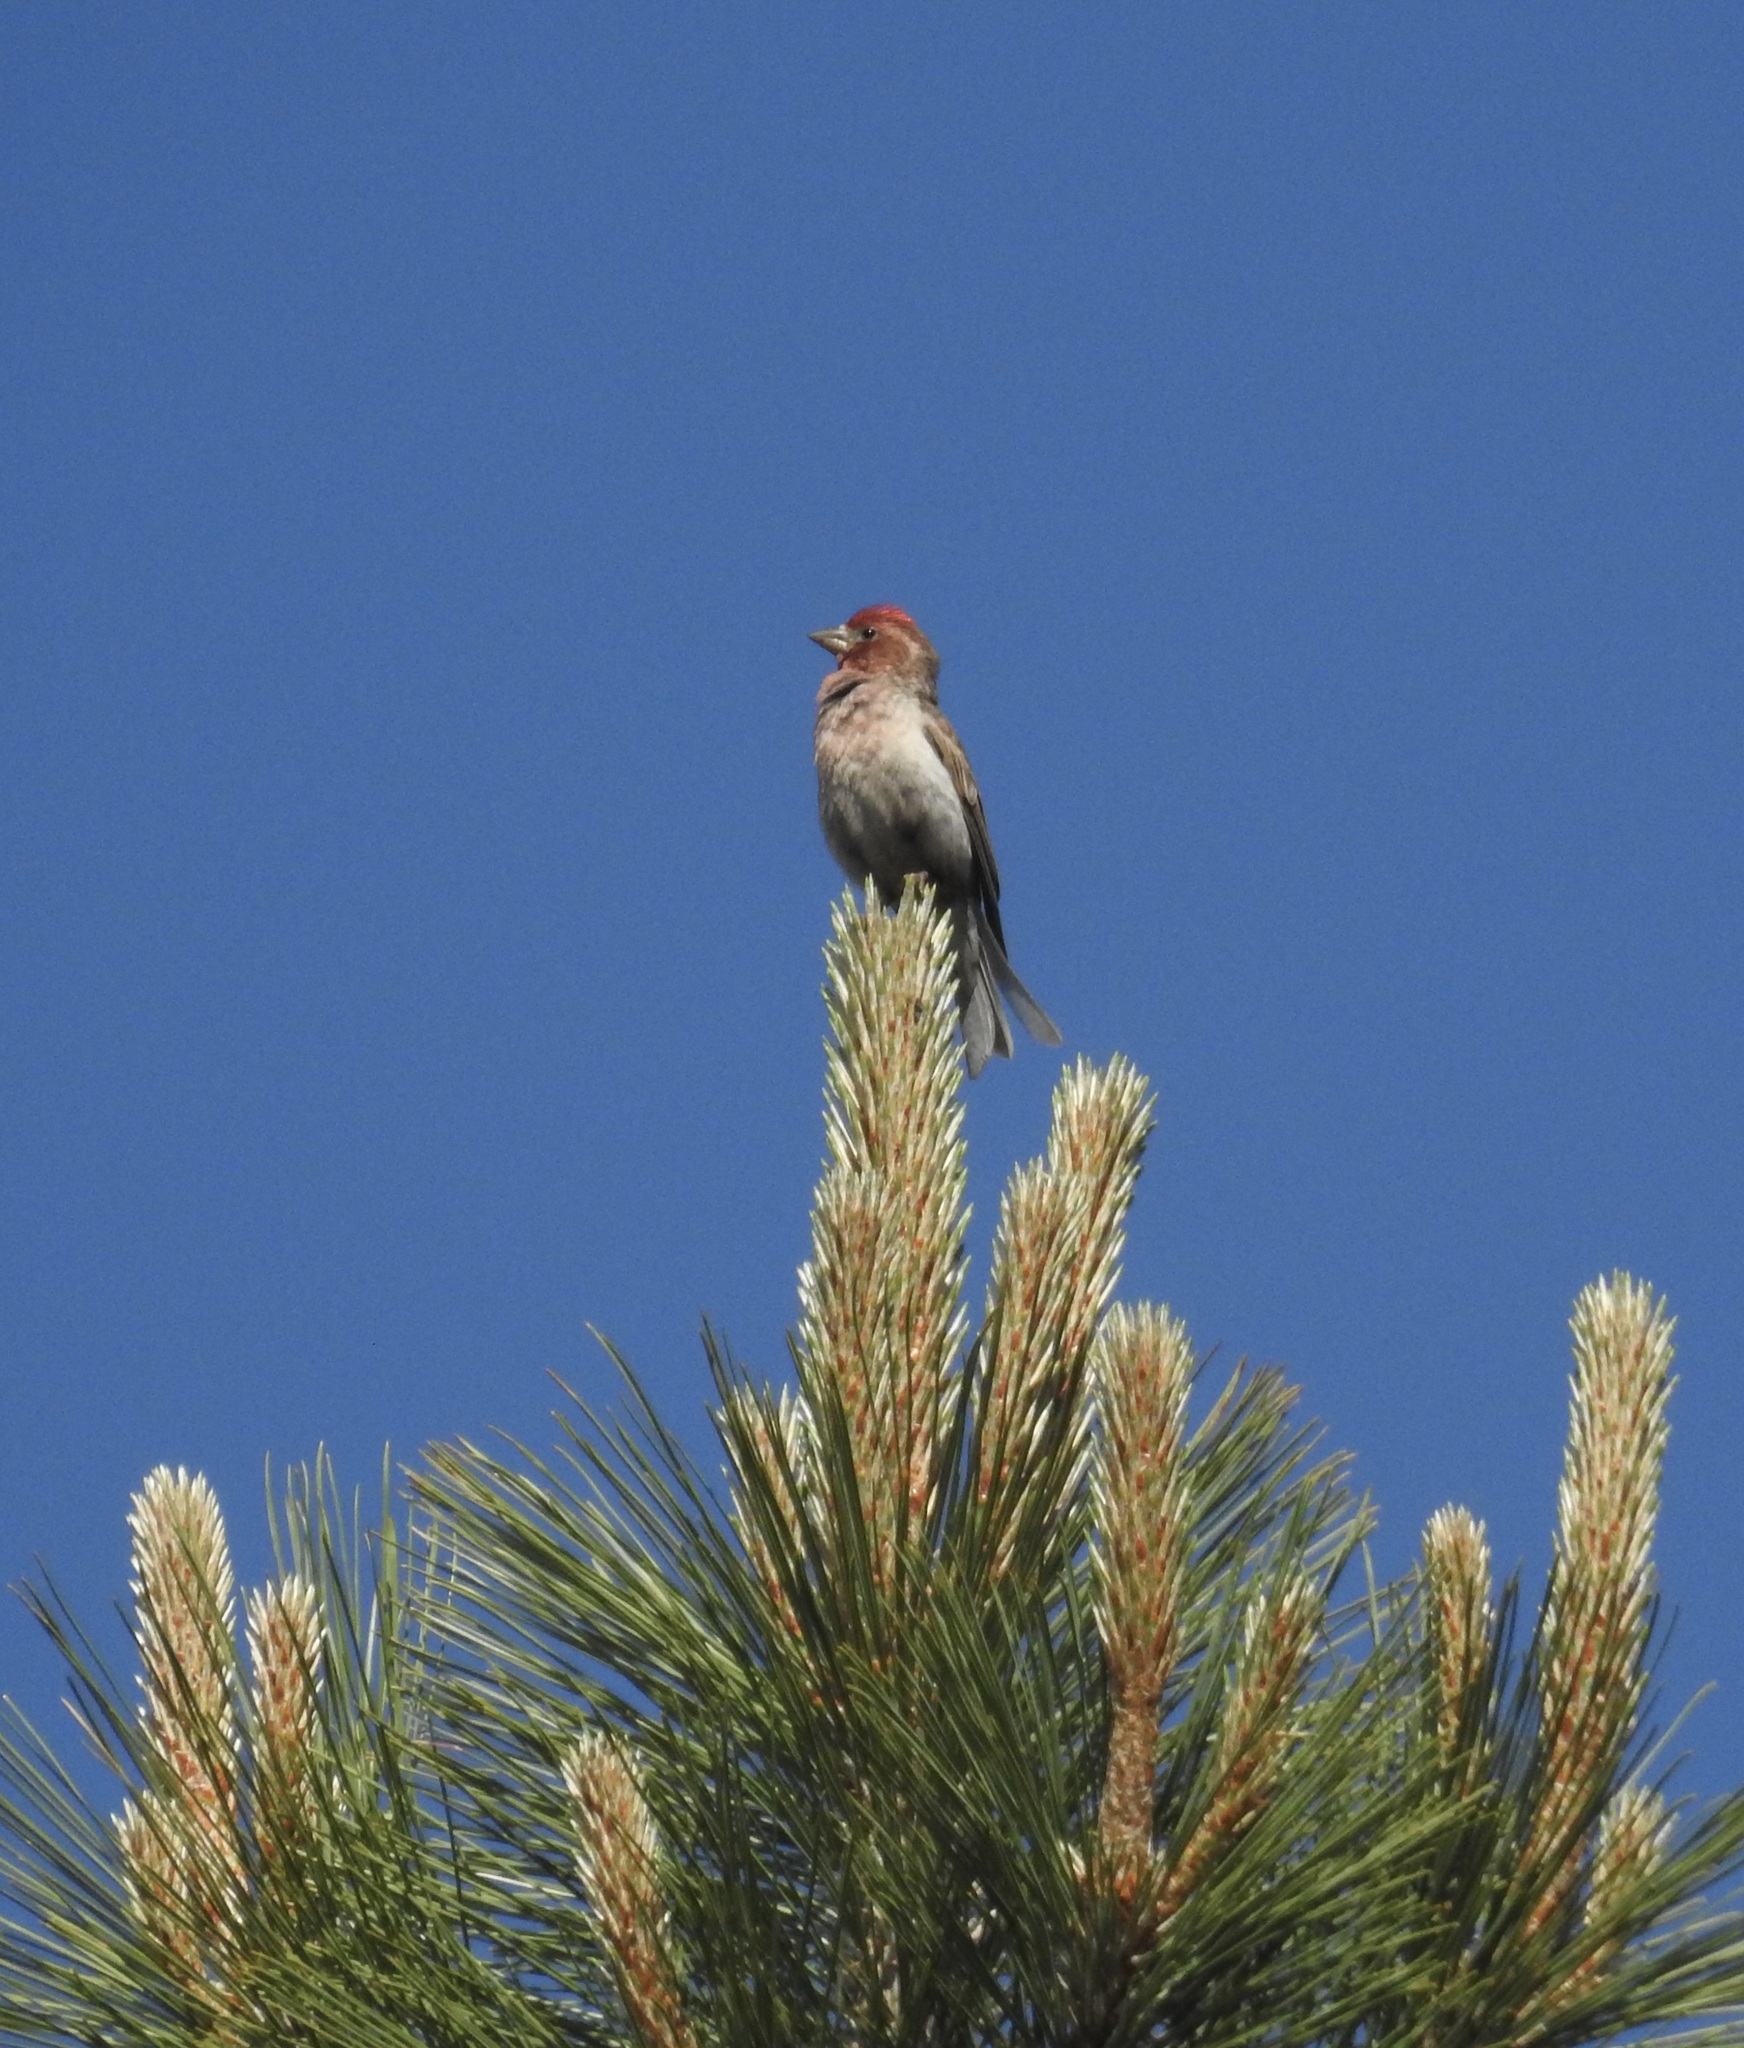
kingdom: Animalia
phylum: Chordata
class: Aves
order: Passeriformes
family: Fringillidae
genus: Haemorhous
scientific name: Haemorhous cassinii
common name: Cassin's finch
